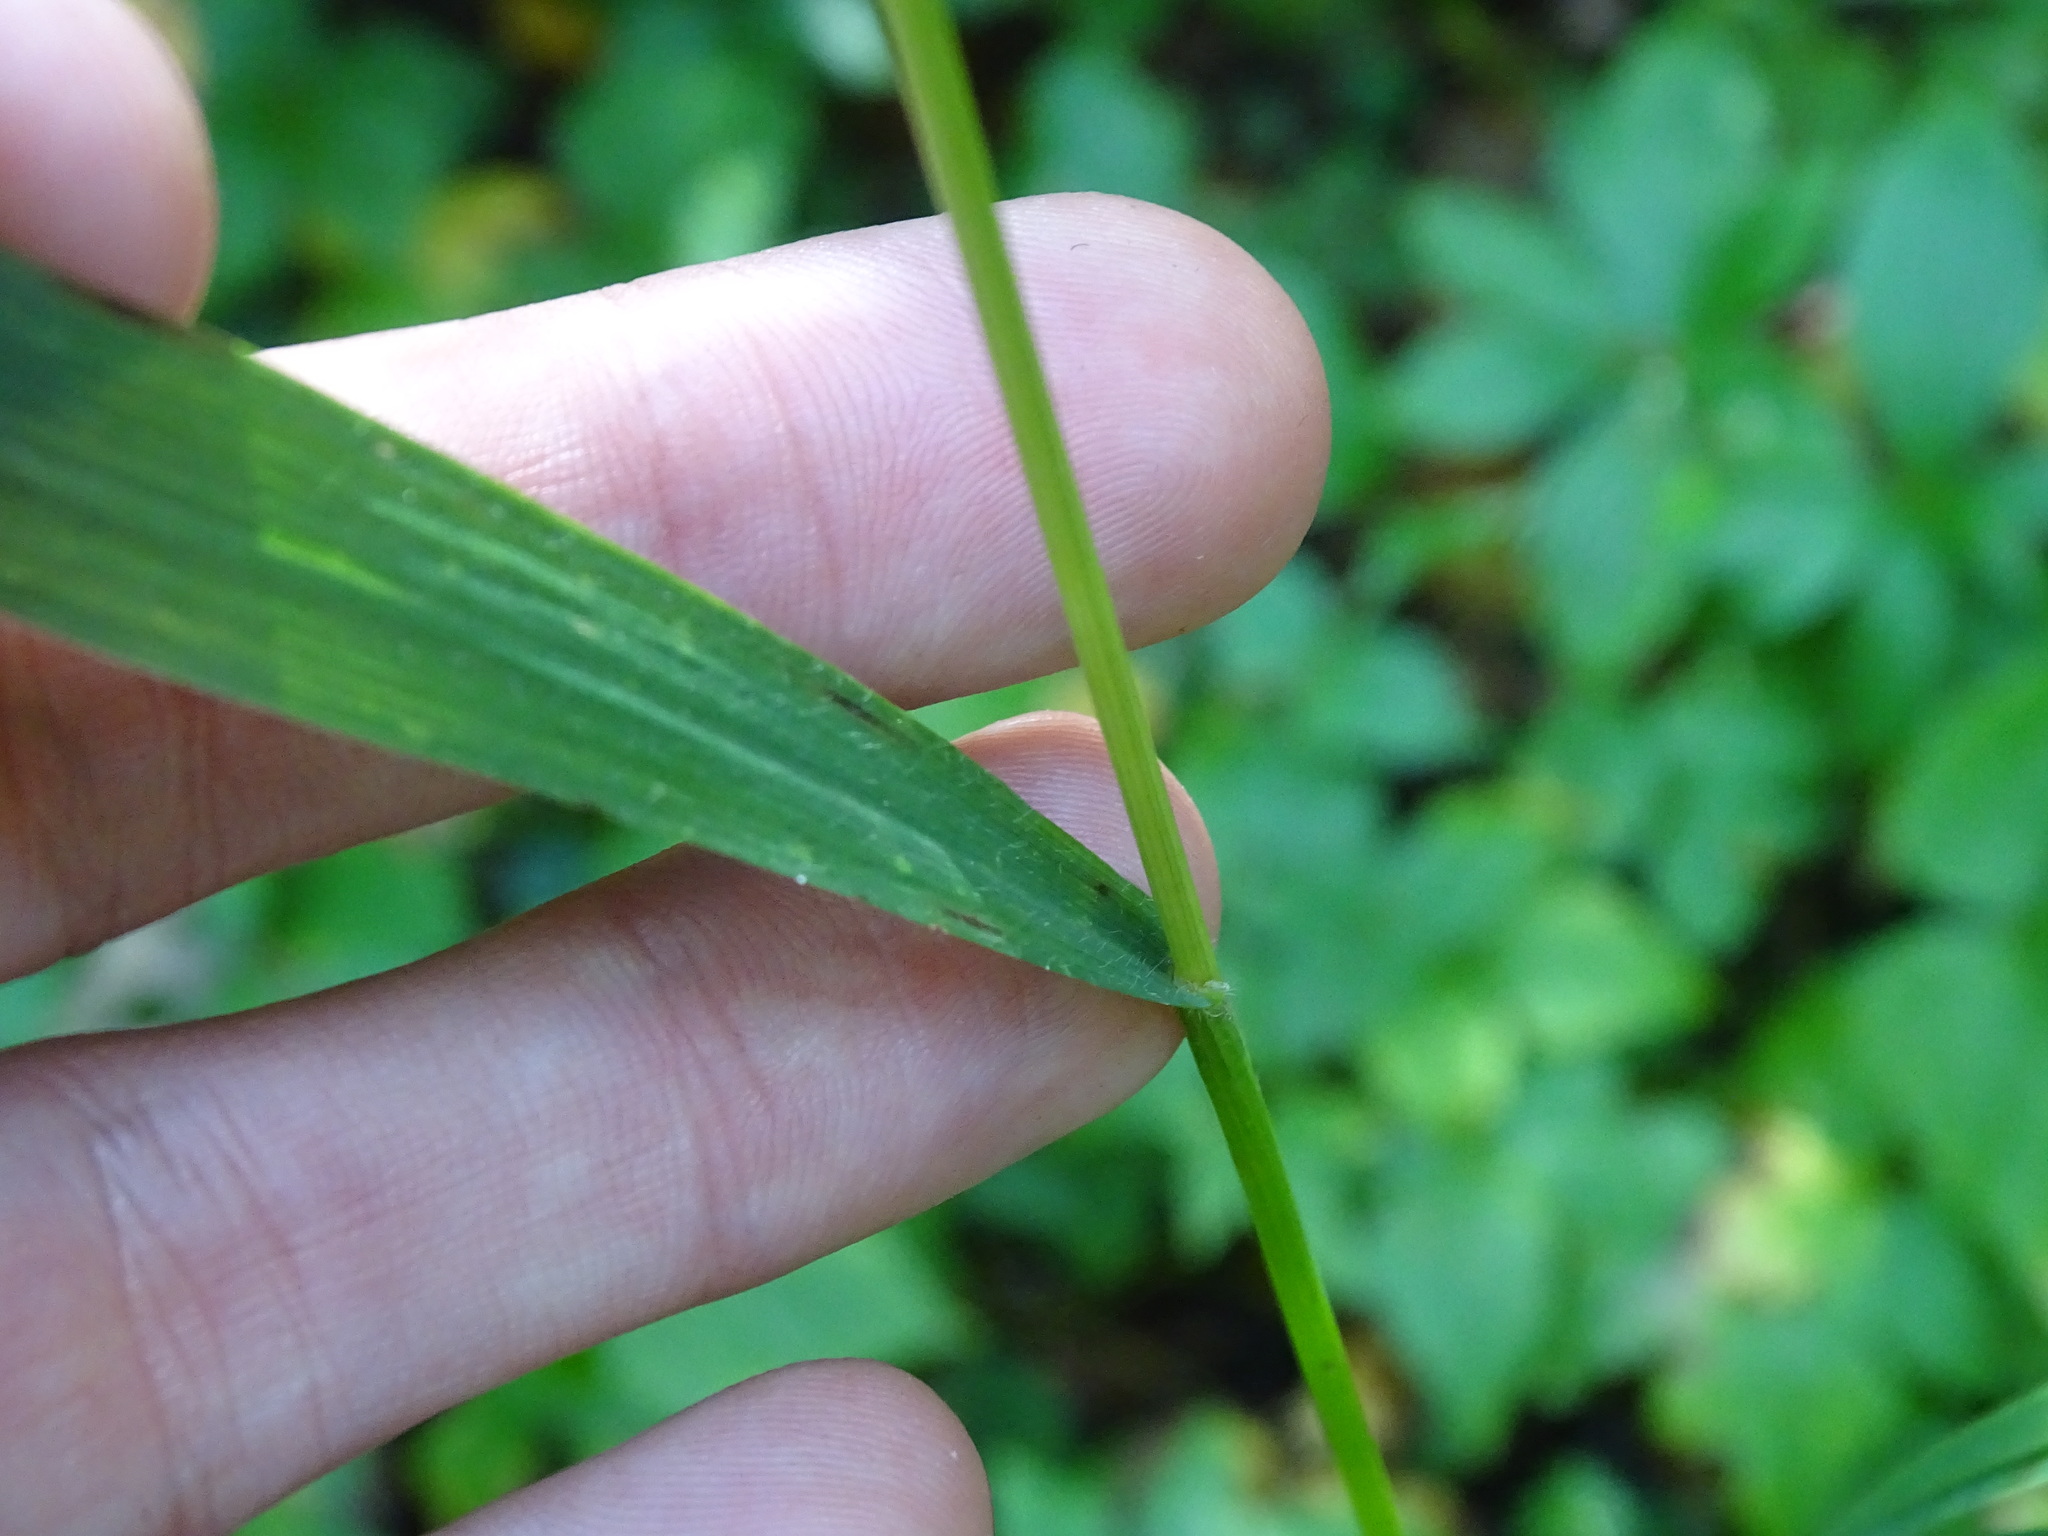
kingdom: Plantae
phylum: Tracheophyta
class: Liliopsida
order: Poales
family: Poaceae
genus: Bromus
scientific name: Bromus ciliatus
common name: Fringe brome
